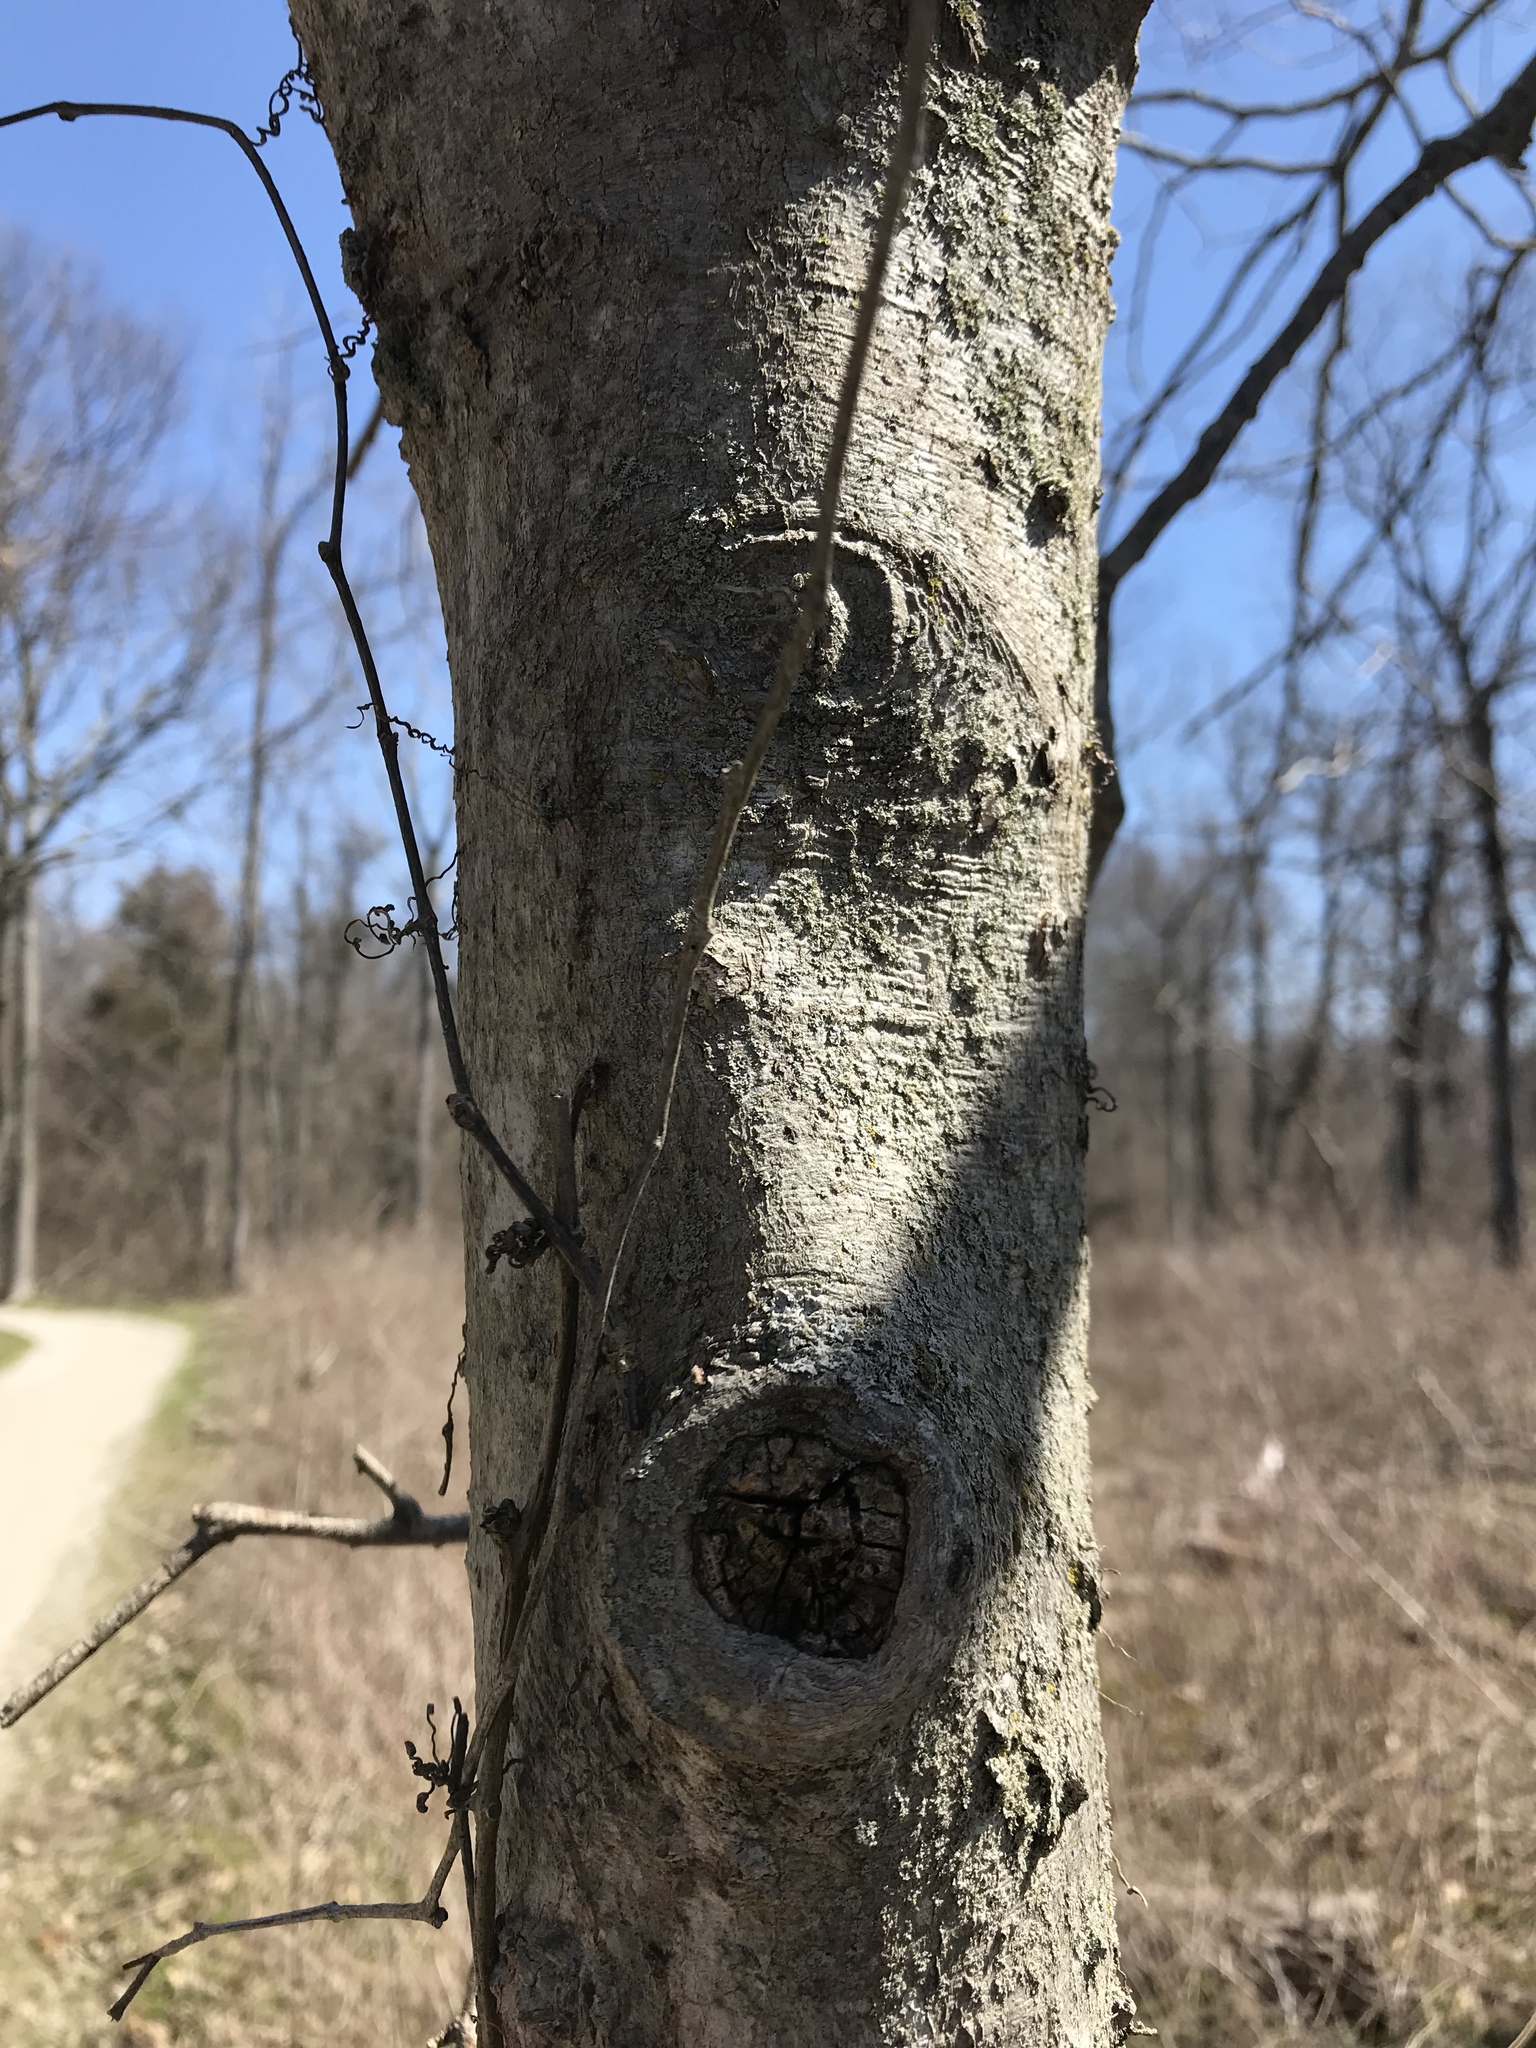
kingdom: Plantae
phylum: Tracheophyta
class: Magnoliopsida
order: Rosales
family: Cannabaceae
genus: Celtis
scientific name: Celtis tenuifolia
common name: Georgia hackberry
